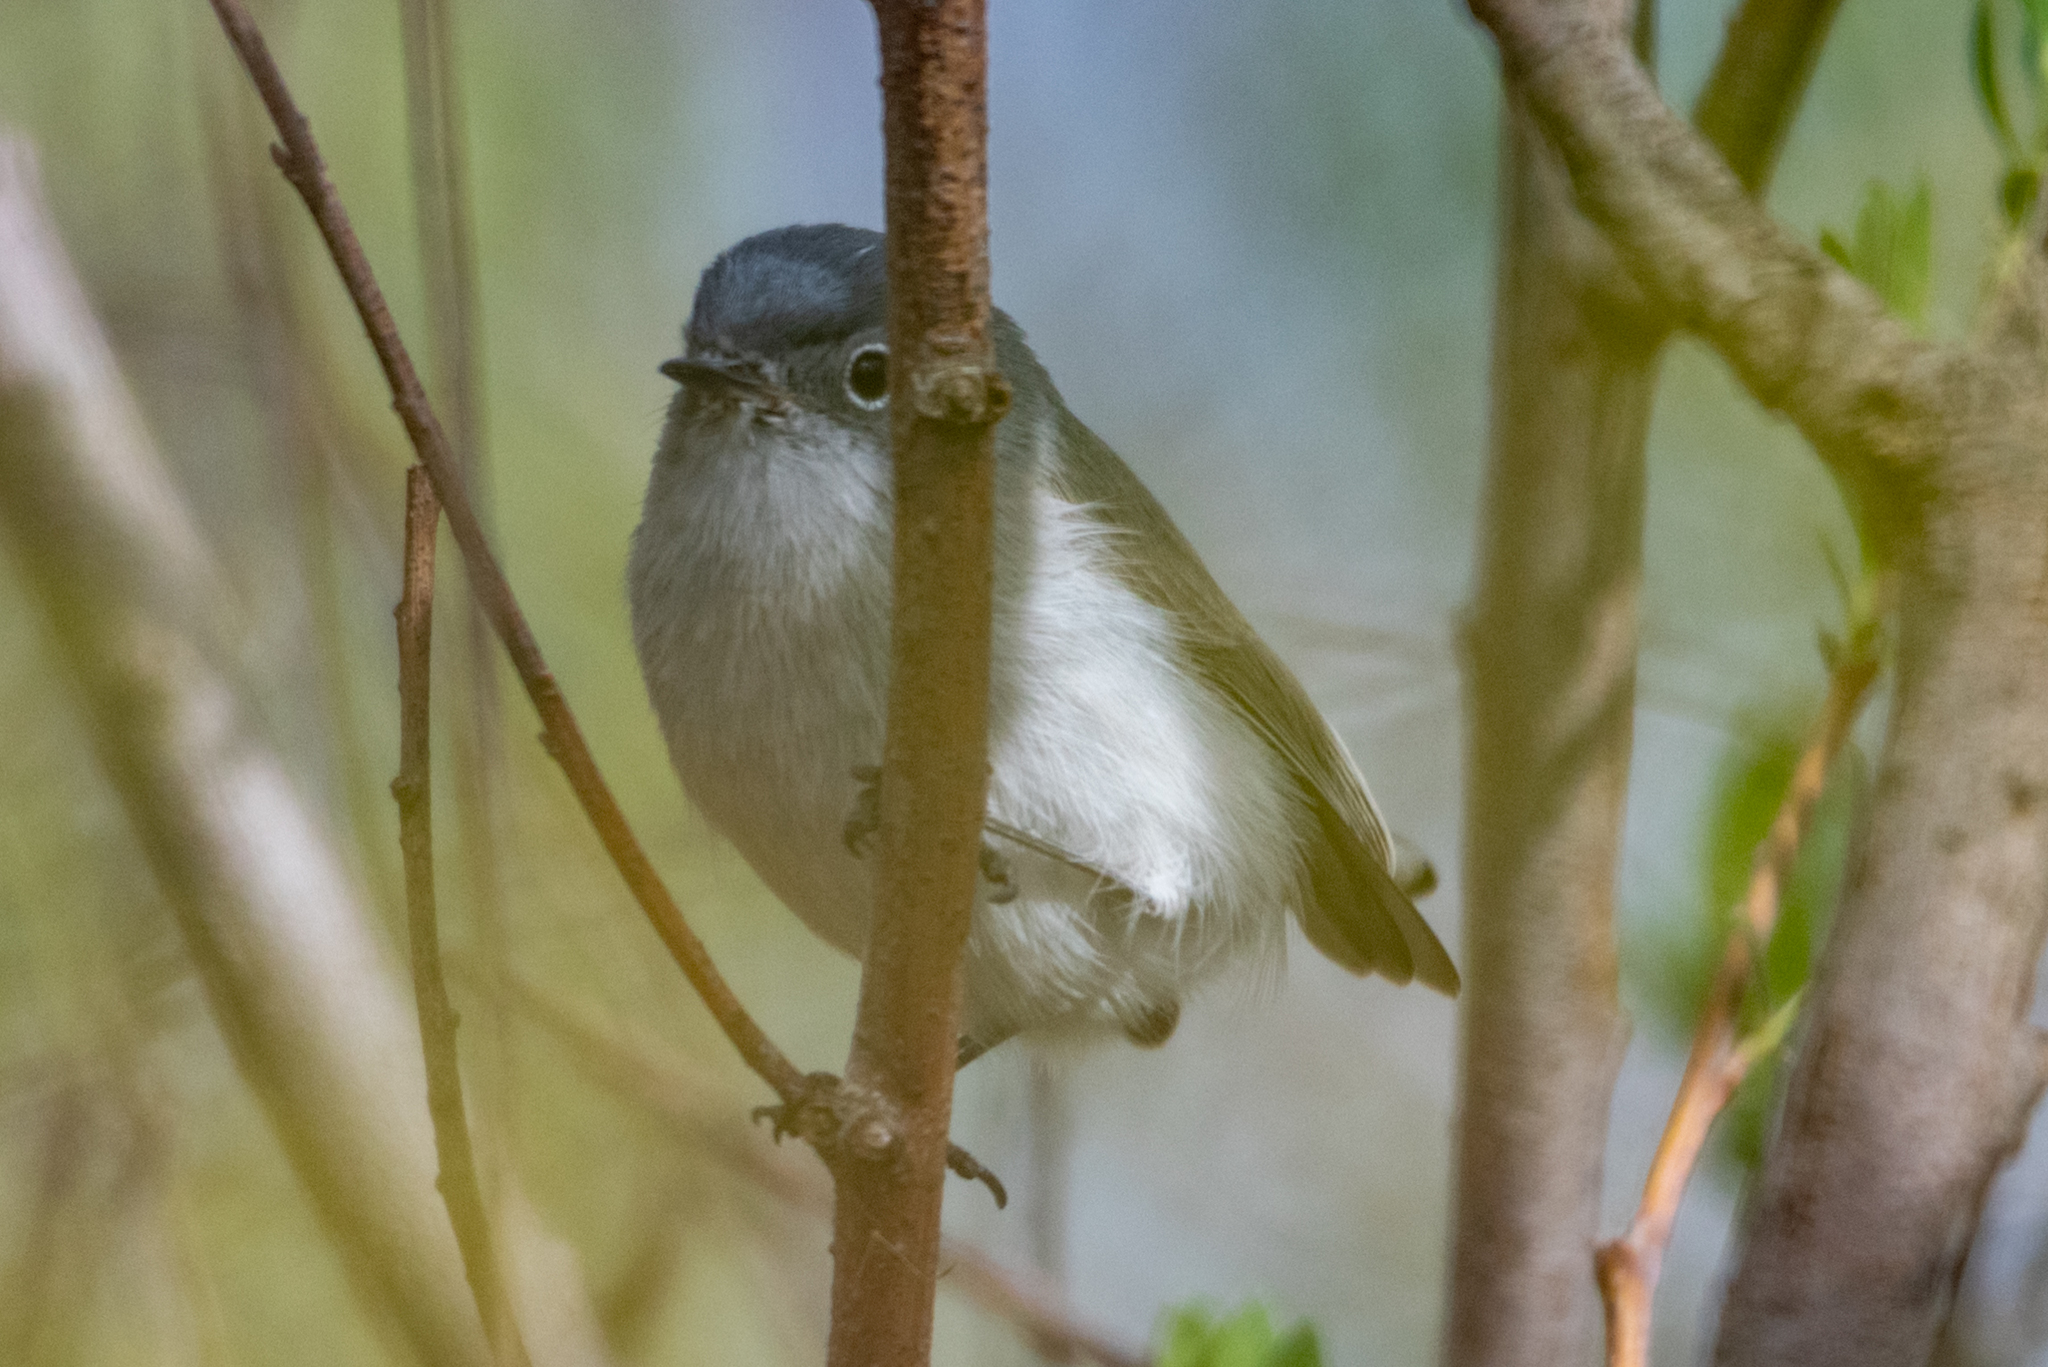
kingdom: Animalia
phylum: Chordata
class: Aves
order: Passeriformes
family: Polioptilidae
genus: Polioptila
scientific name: Polioptila caerulea
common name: Blue-gray gnatcatcher
